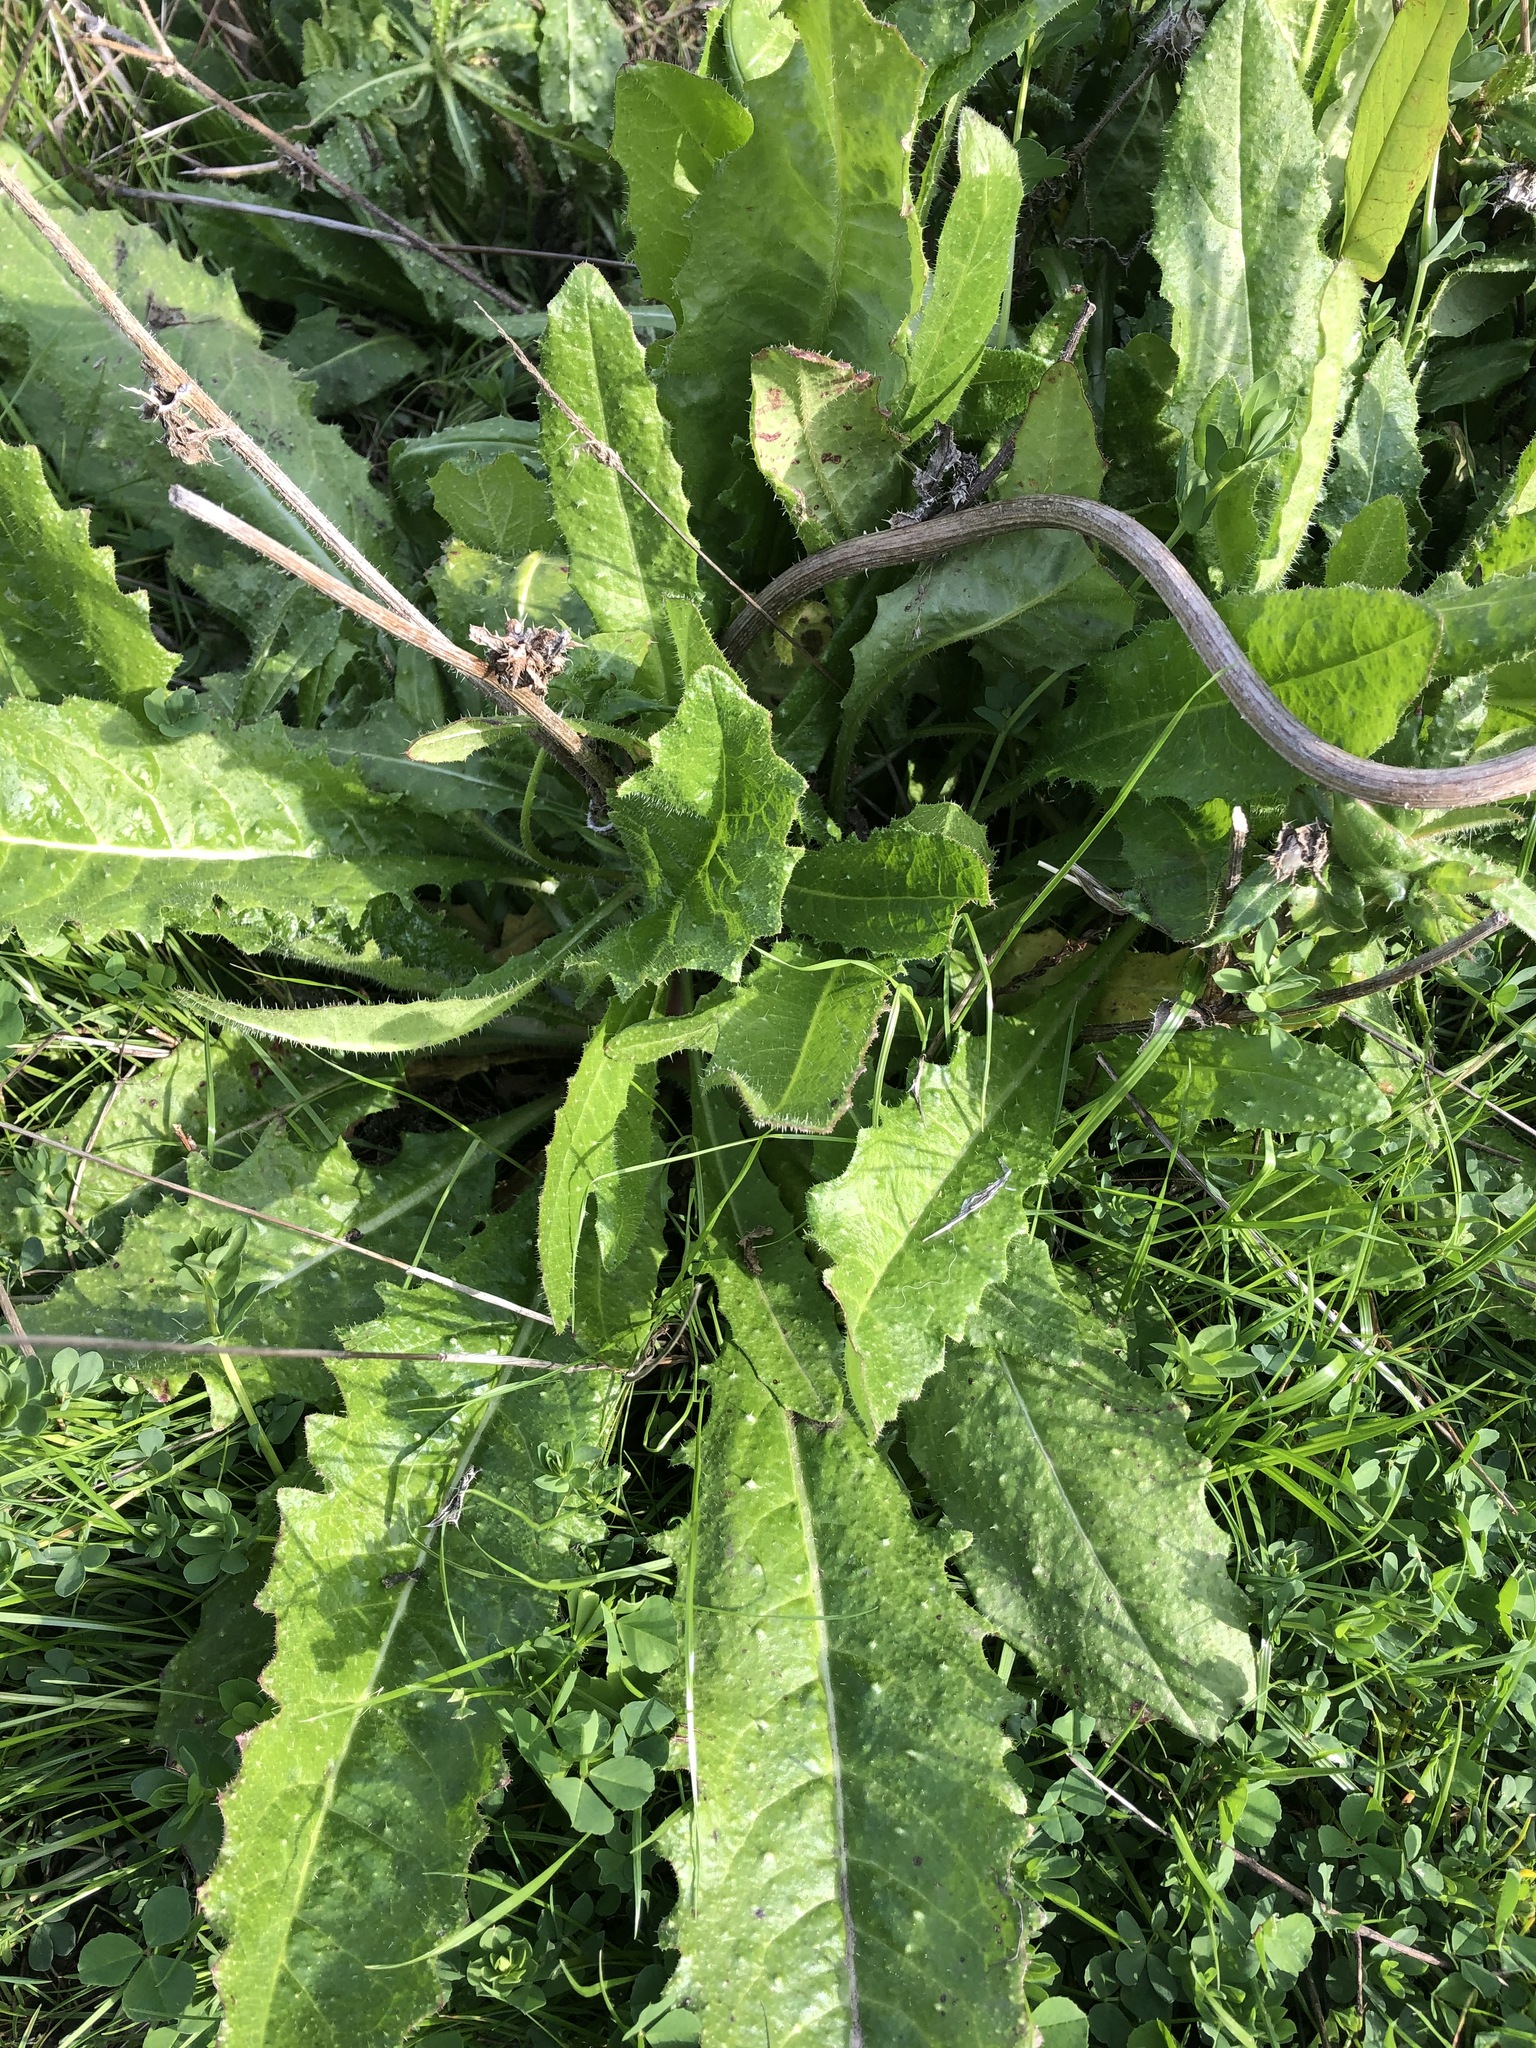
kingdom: Plantae
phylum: Tracheophyta
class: Magnoliopsida
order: Asterales
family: Asteraceae
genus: Helminthotheca
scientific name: Helminthotheca echioides
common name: Ox-tongue
